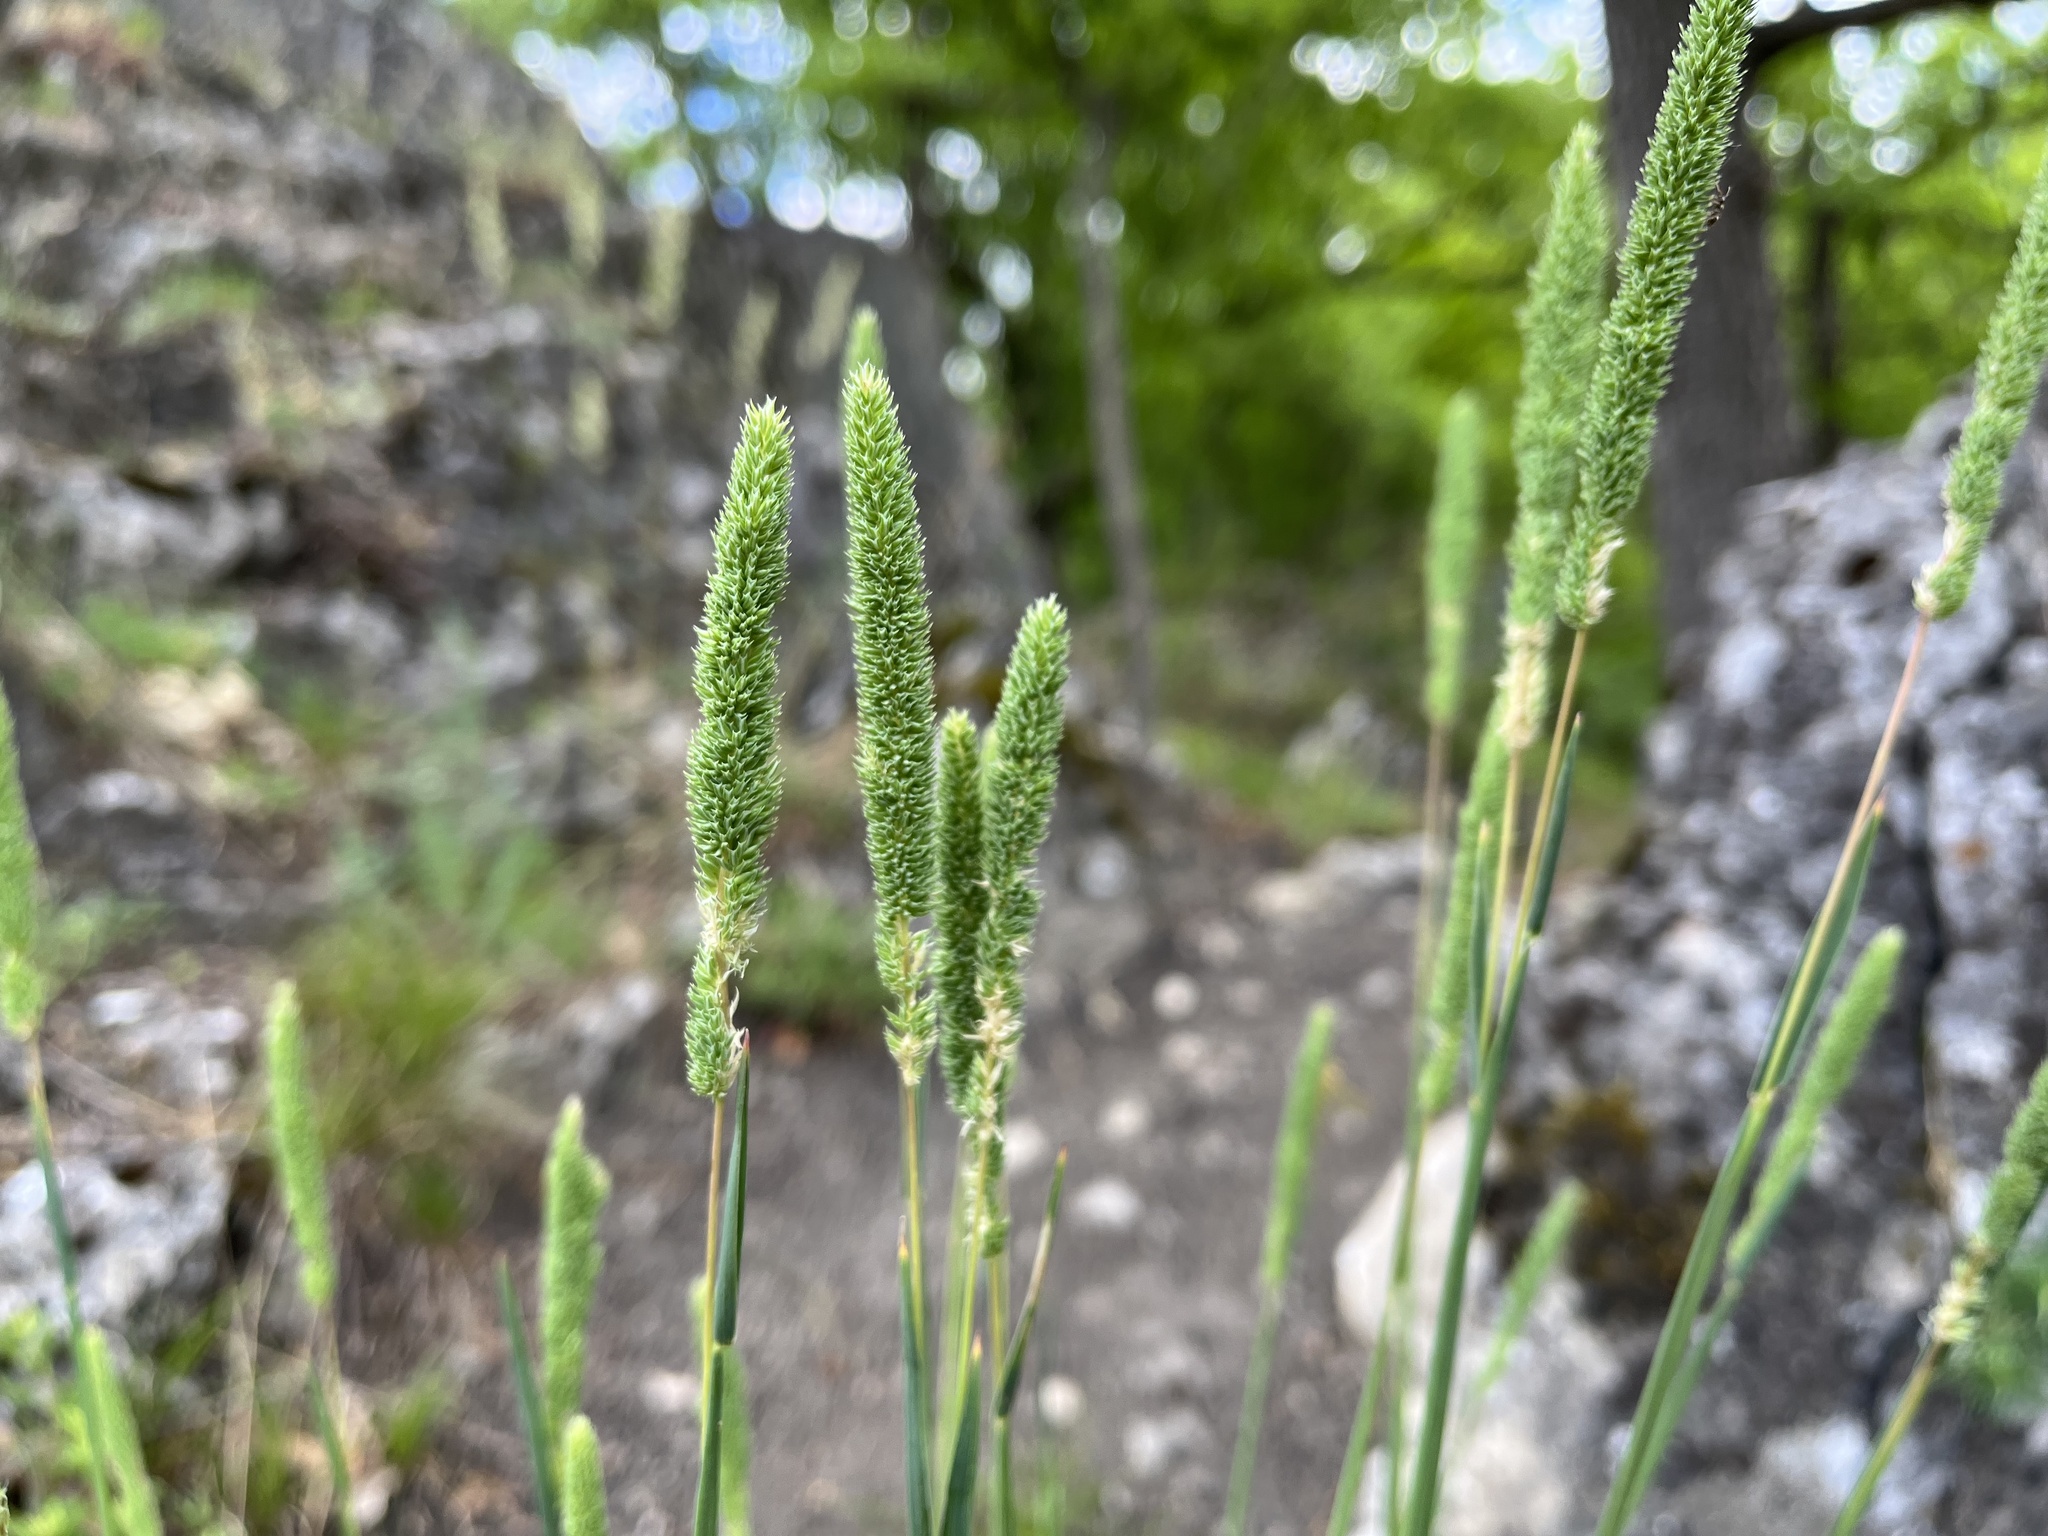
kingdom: Plantae
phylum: Tracheophyta
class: Liliopsida
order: Poales
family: Poaceae
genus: Phleum
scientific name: Phleum phleoides
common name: Purple-stem cat's-tail
